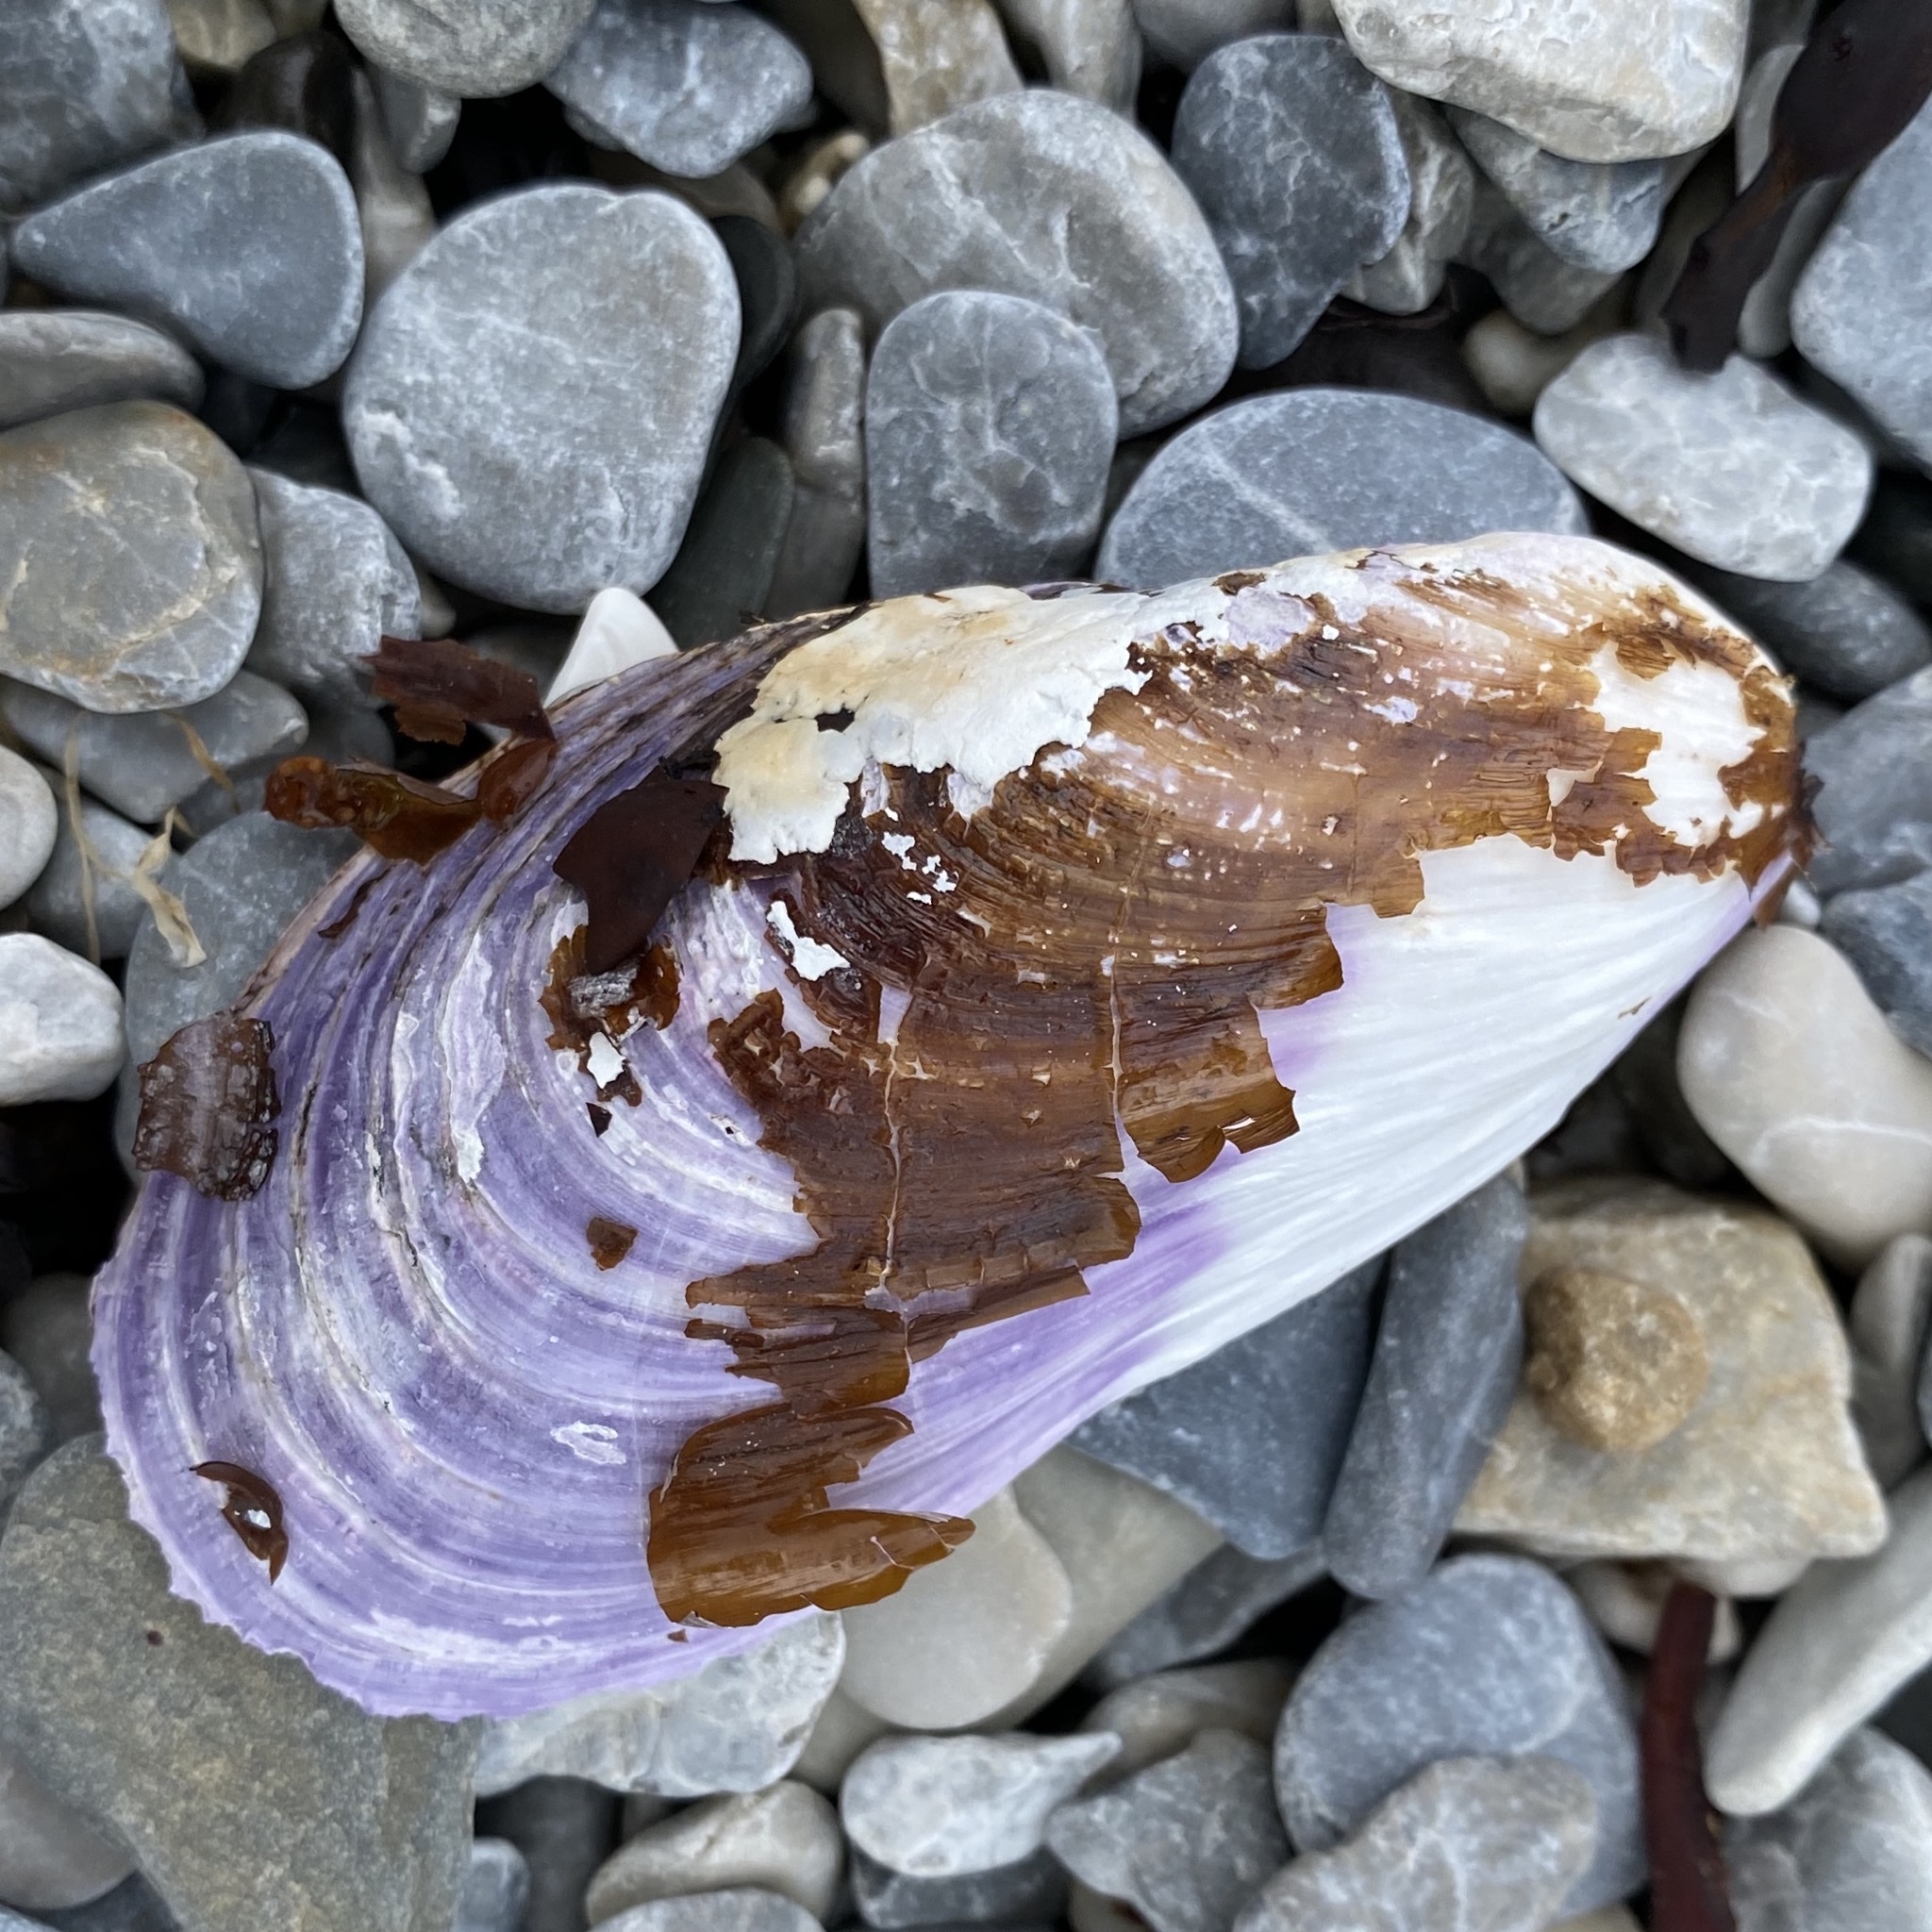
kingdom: Animalia
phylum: Mollusca
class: Bivalvia
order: Mytilida
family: Mytilidae
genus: Modiolus
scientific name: Modiolus modiolus
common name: Horse-mussel
